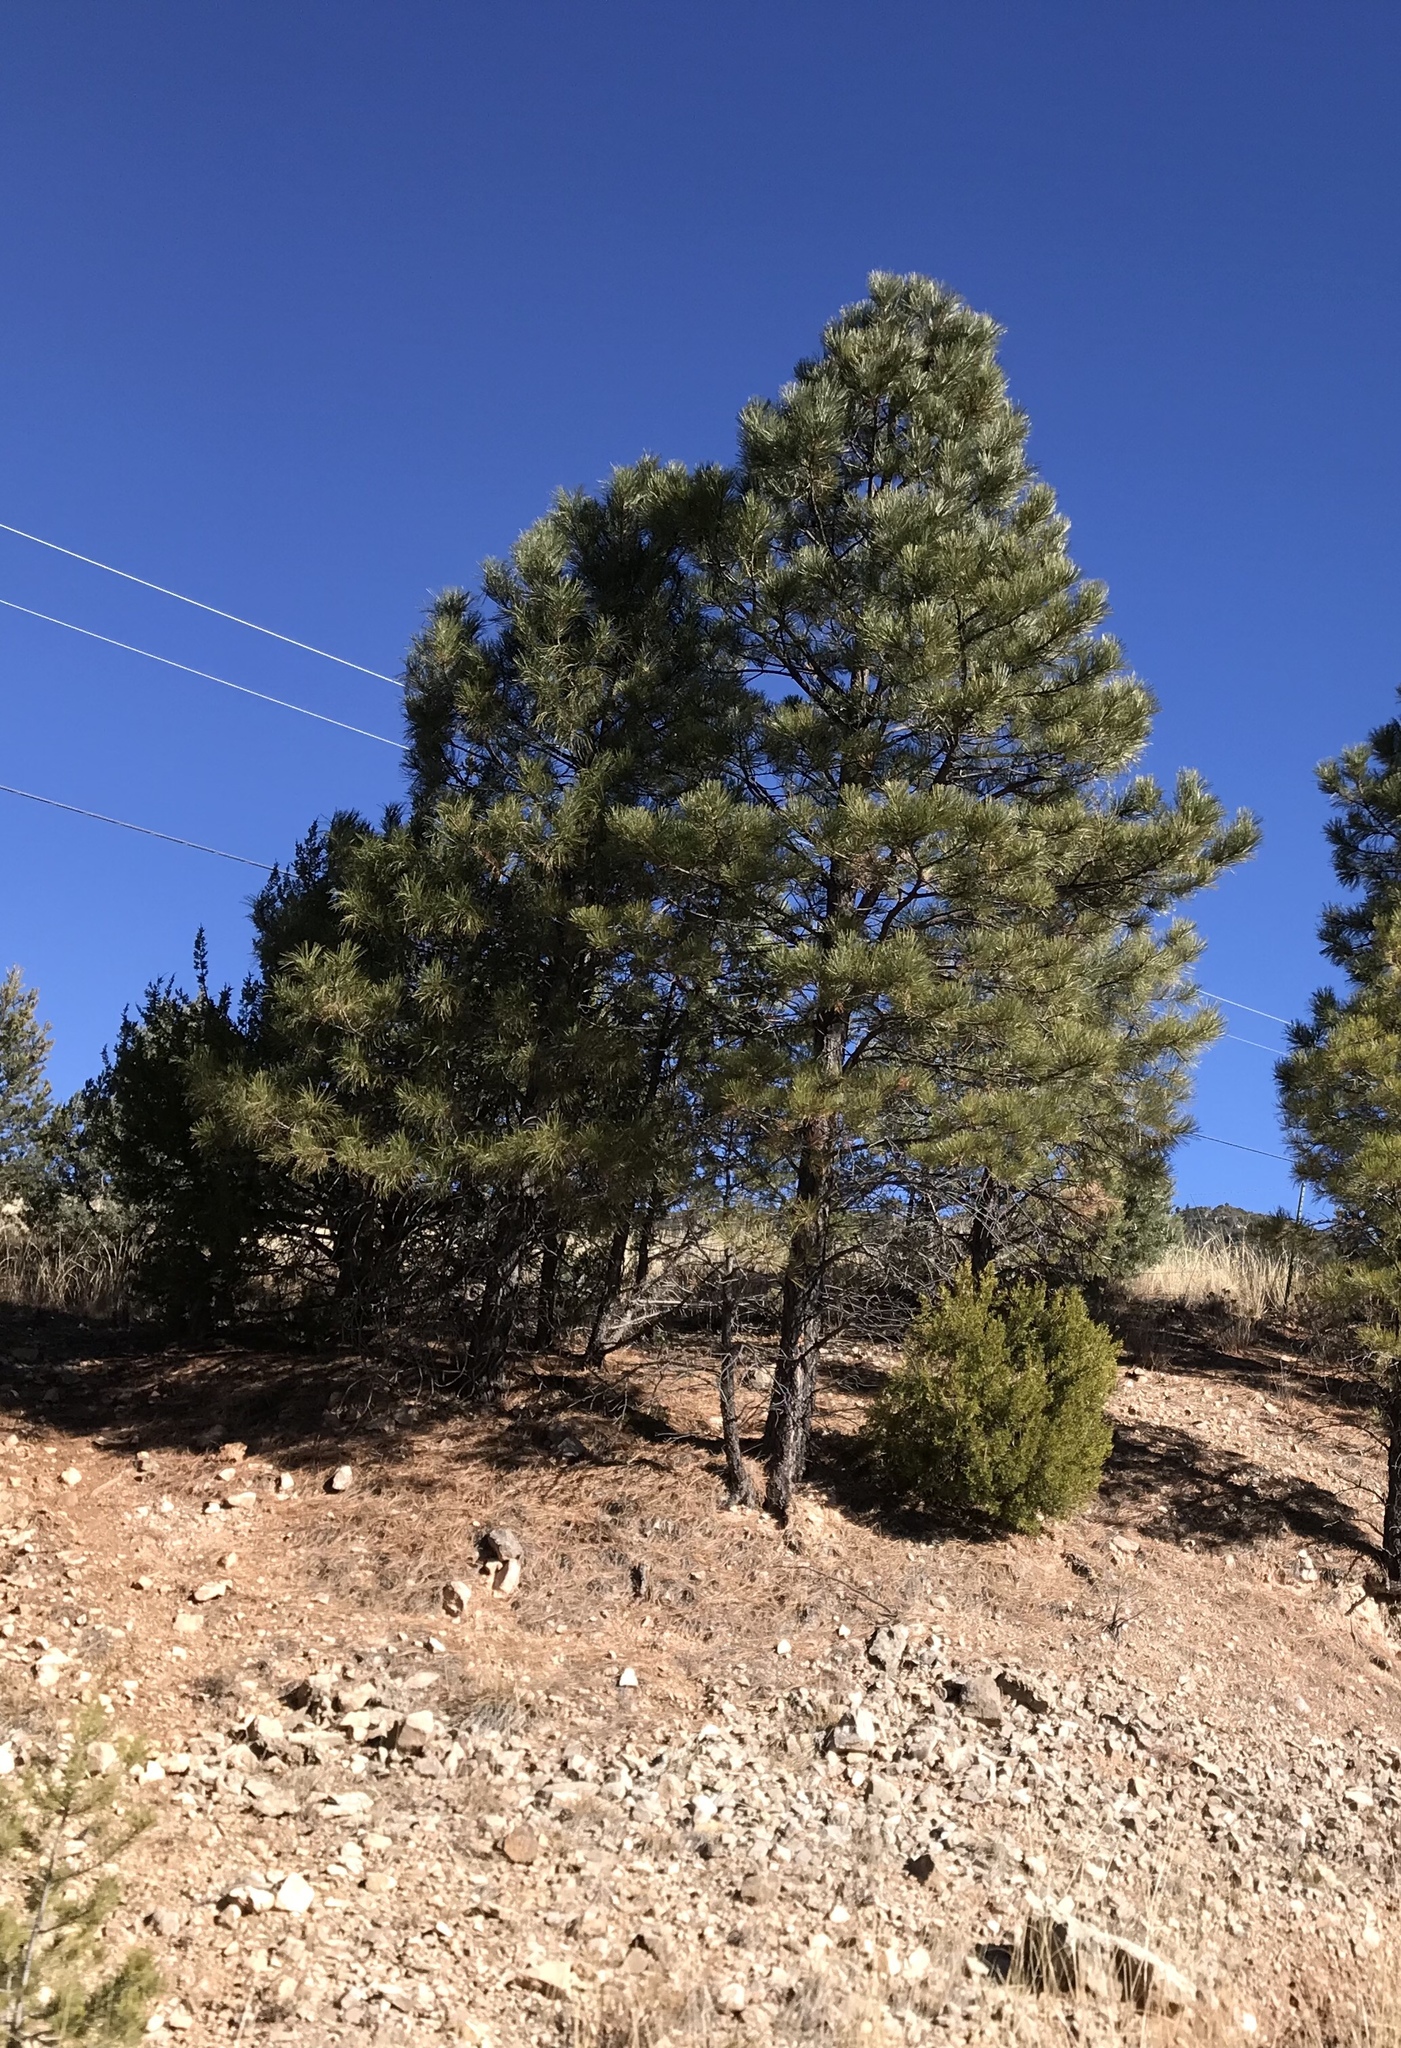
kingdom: Plantae
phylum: Tracheophyta
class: Pinopsida
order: Pinales
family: Pinaceae
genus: Pinus
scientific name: Pinus ponderosa
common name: Western yellow-pine
